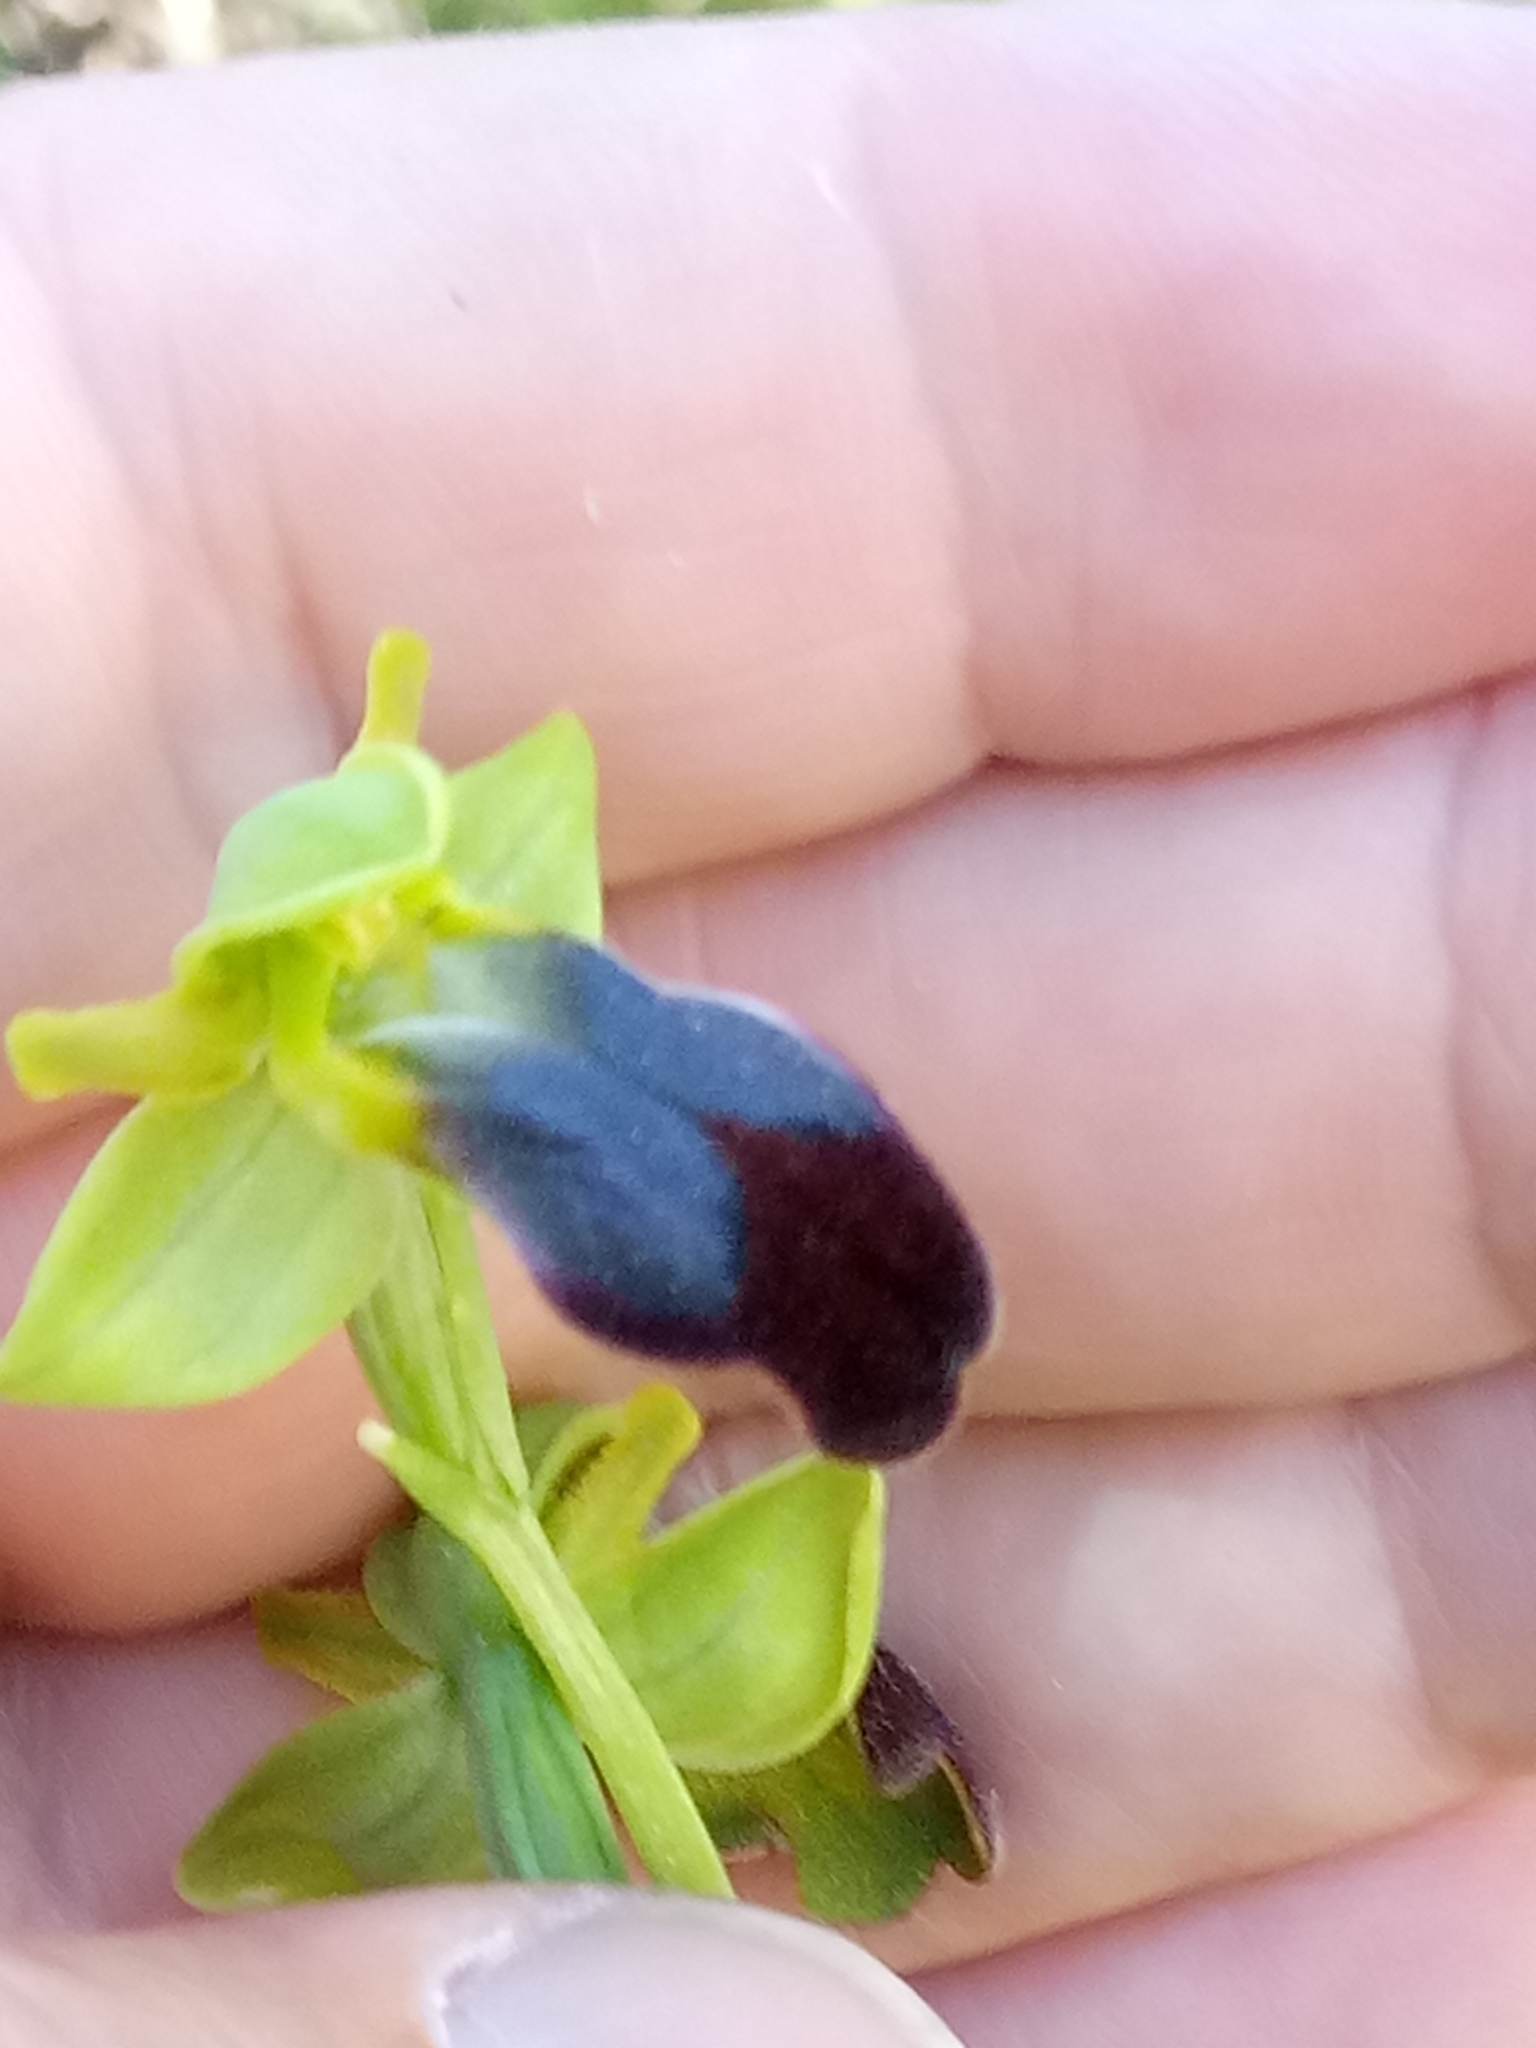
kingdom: Plantae
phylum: Tracheophyta
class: Liliopsida
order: Asparagales
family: Orchidaceae
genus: Ophrys
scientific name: Ophrys fusca
